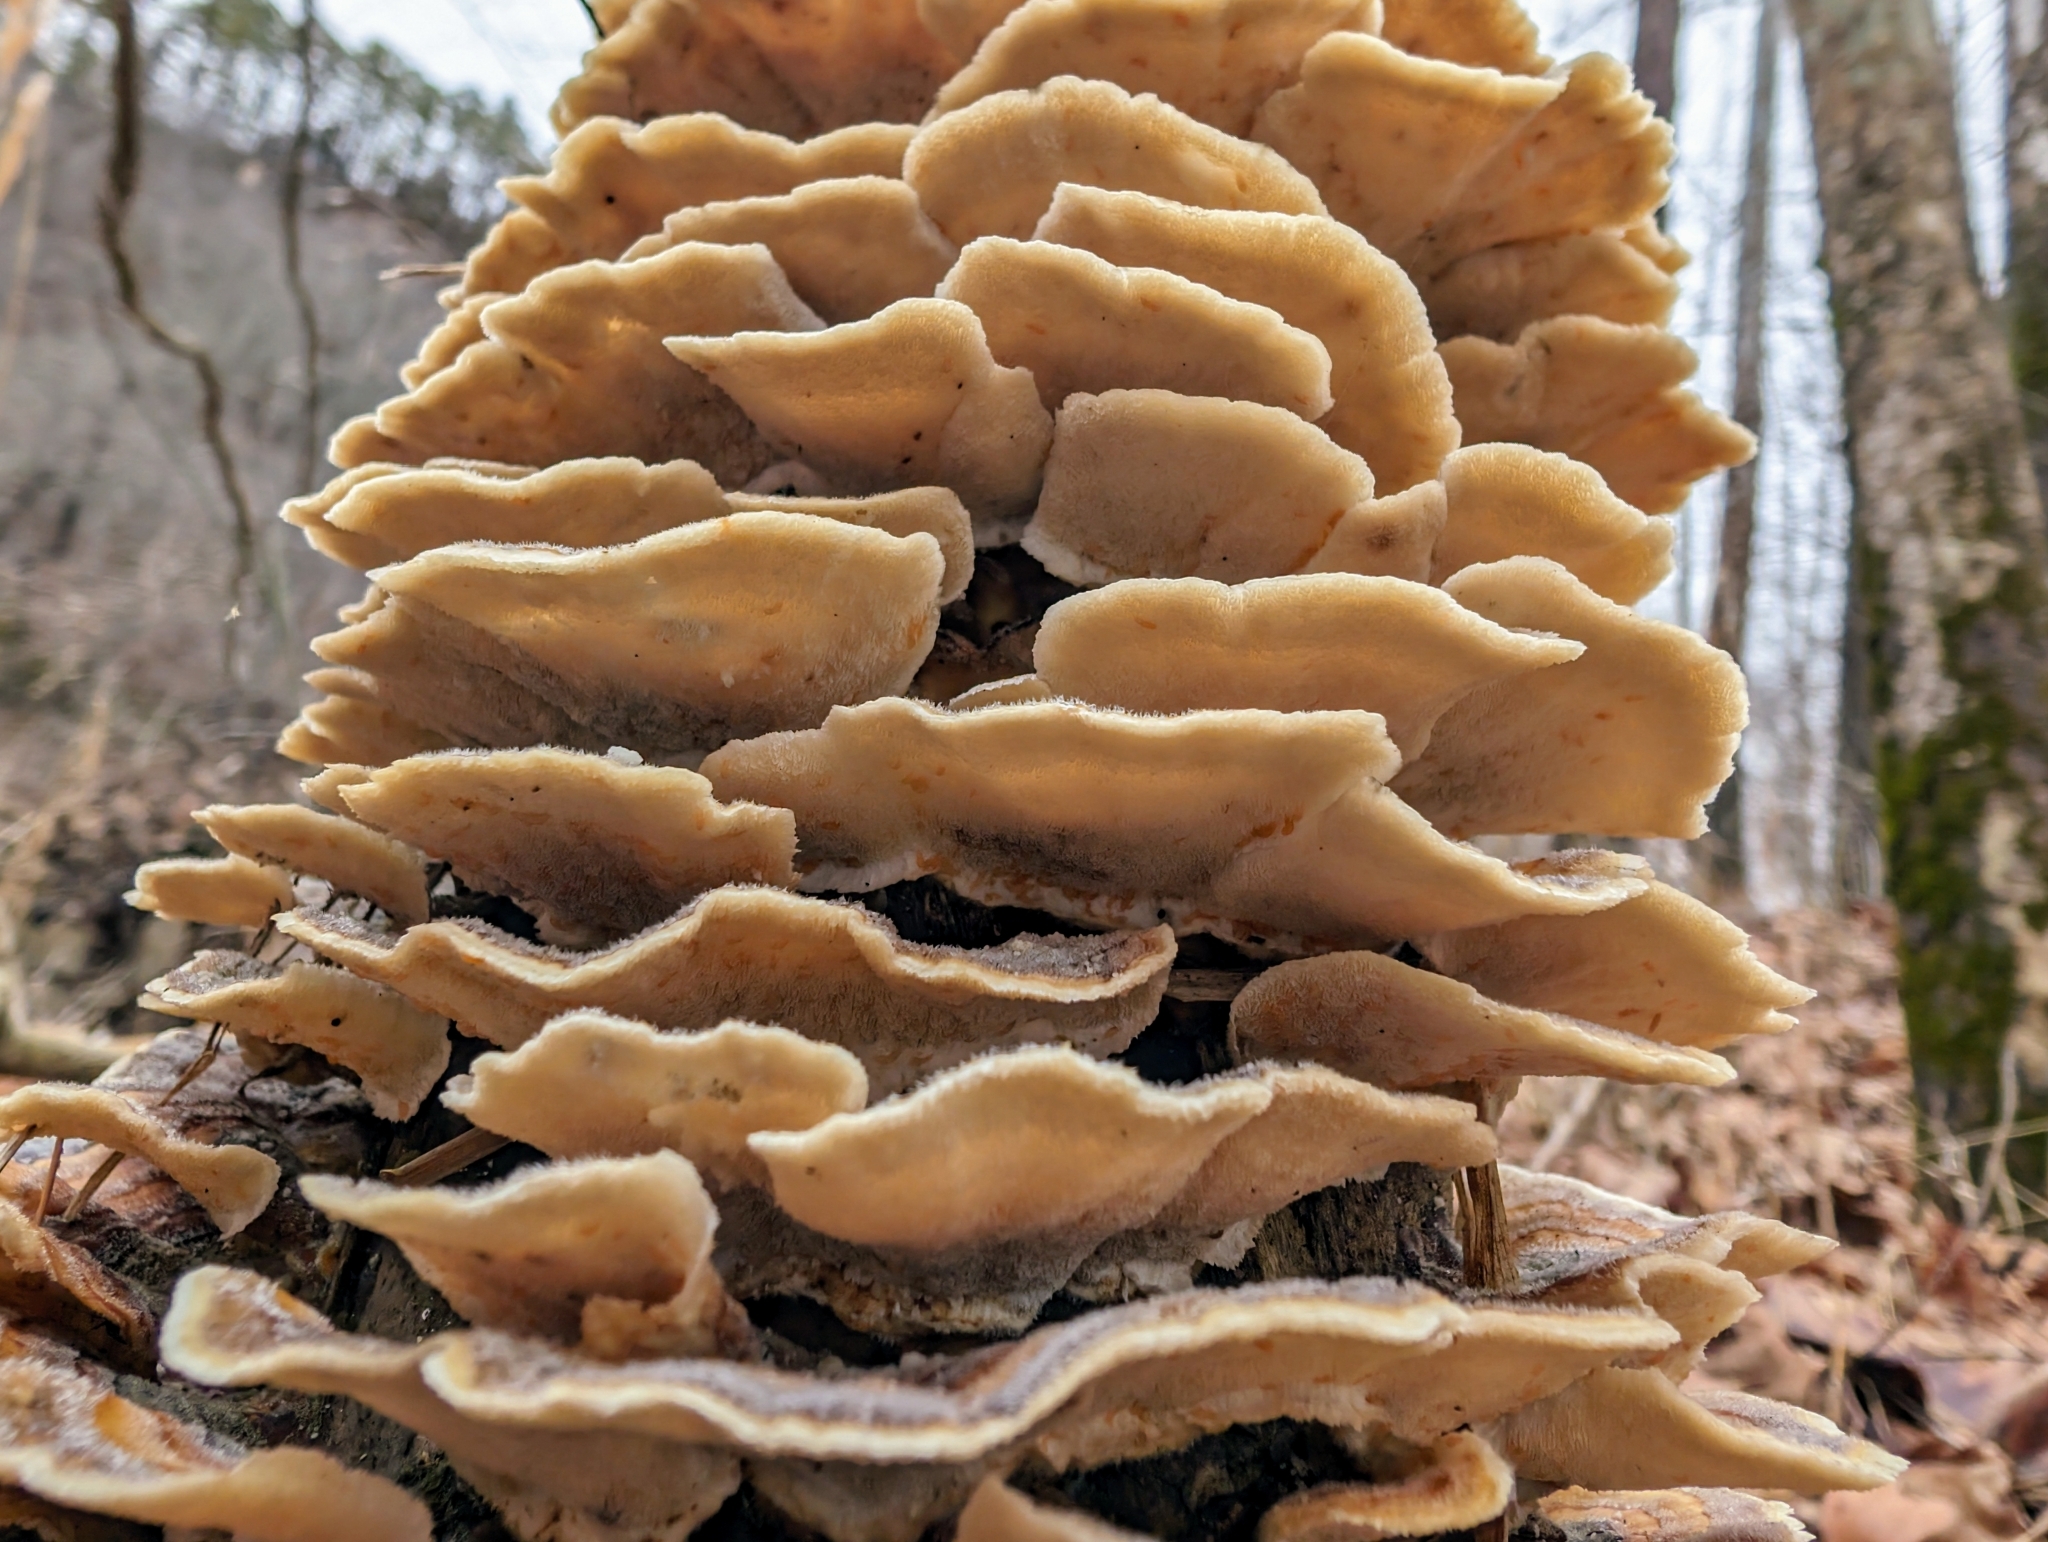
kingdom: Fungi
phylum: Basidiomycota
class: Agaricomycetes
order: Polyporales
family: Polyporaceae
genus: Trametes
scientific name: Trametes versicolor
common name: Turkeytail
